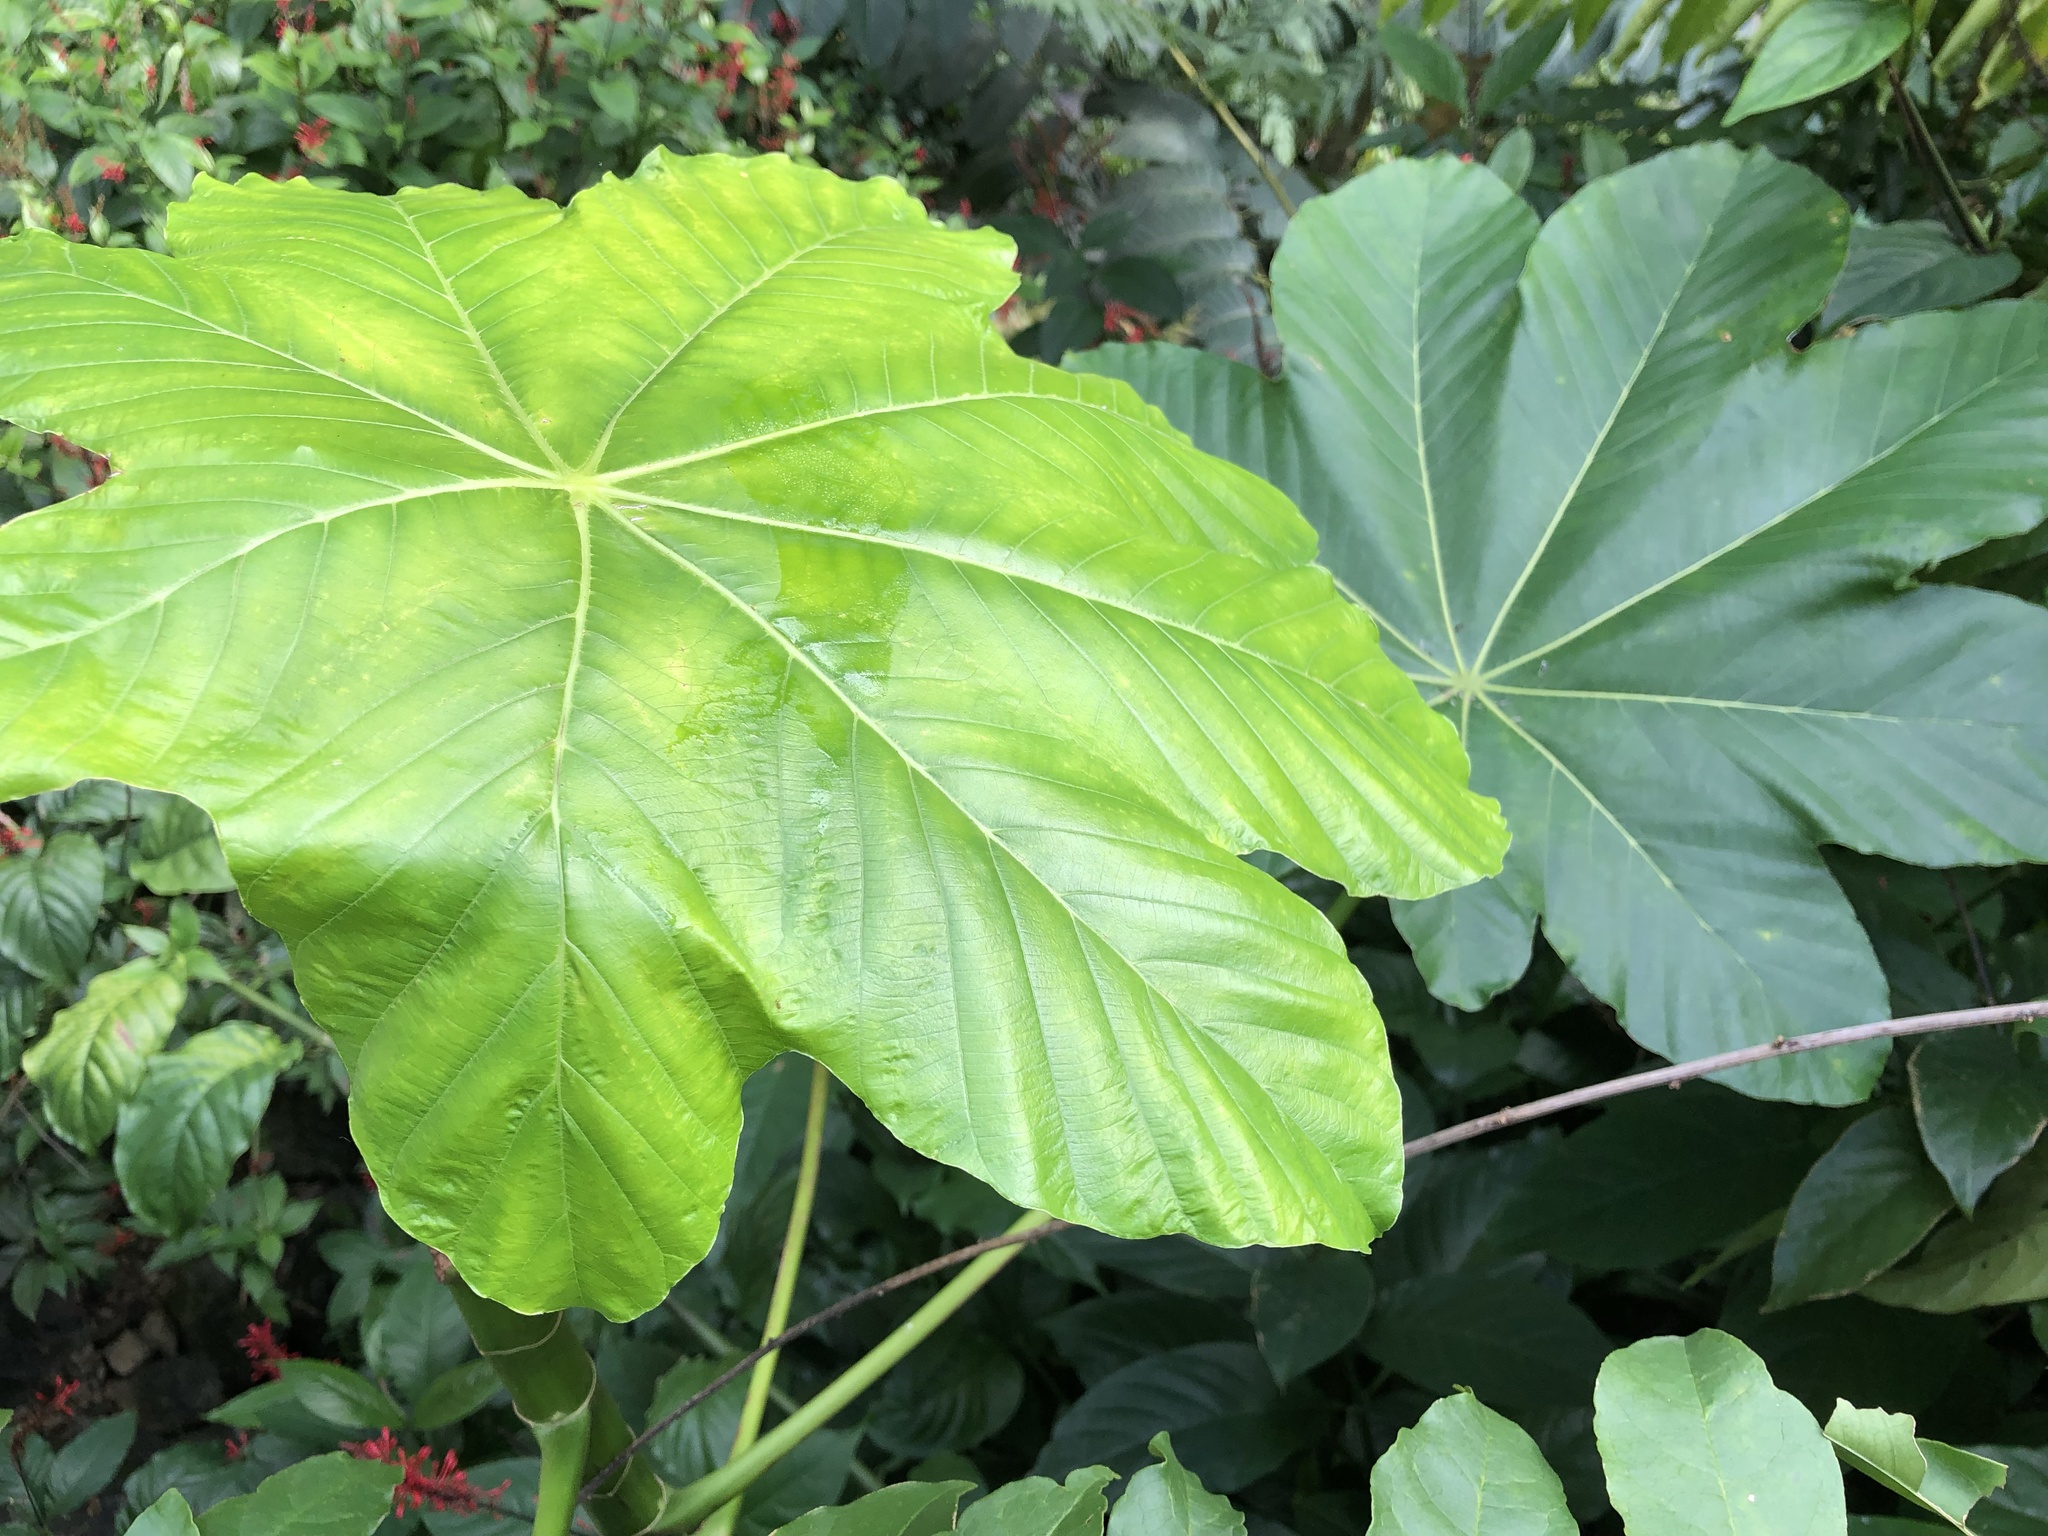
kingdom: Plantae
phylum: Tracheophyta
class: Magnoliopsida
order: Rosales
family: Urticaceae
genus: Cecropia
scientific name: Cecropia schreberiana
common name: Trumpet tree
